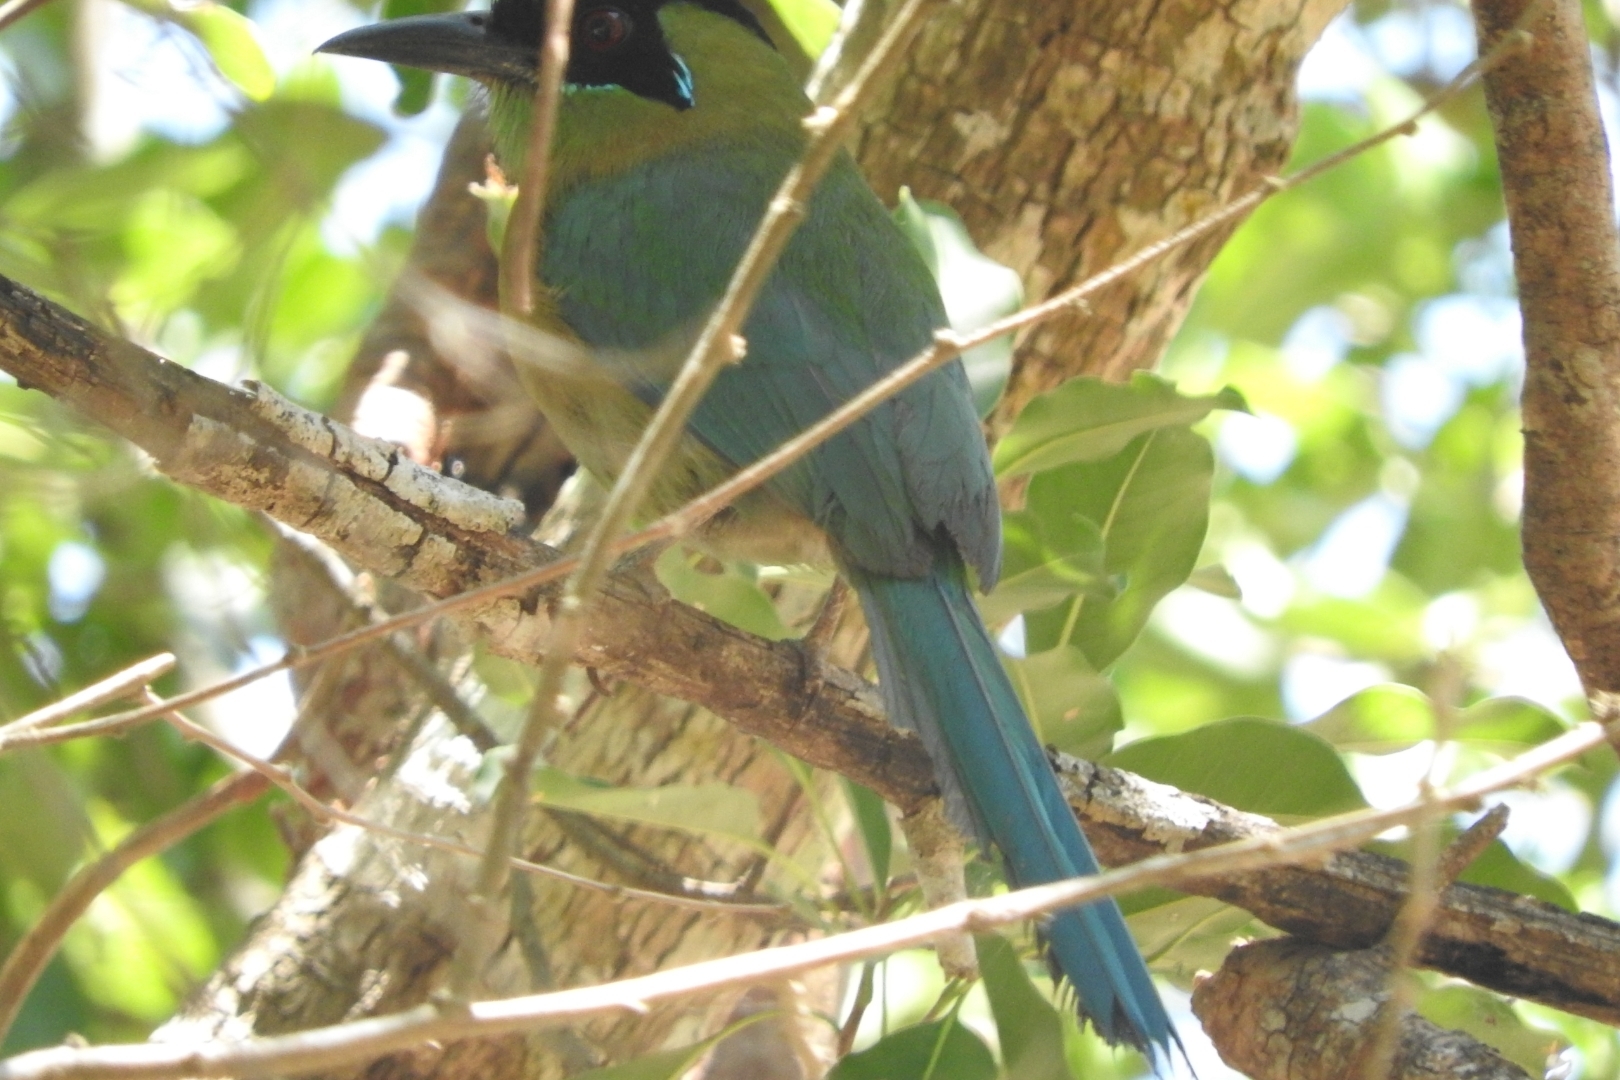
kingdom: Animalia
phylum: Chordata
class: Aves
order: Coraciiformes
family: Momotidae
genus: Momotus
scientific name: Momotus lessonii
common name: Lesson's motmot
